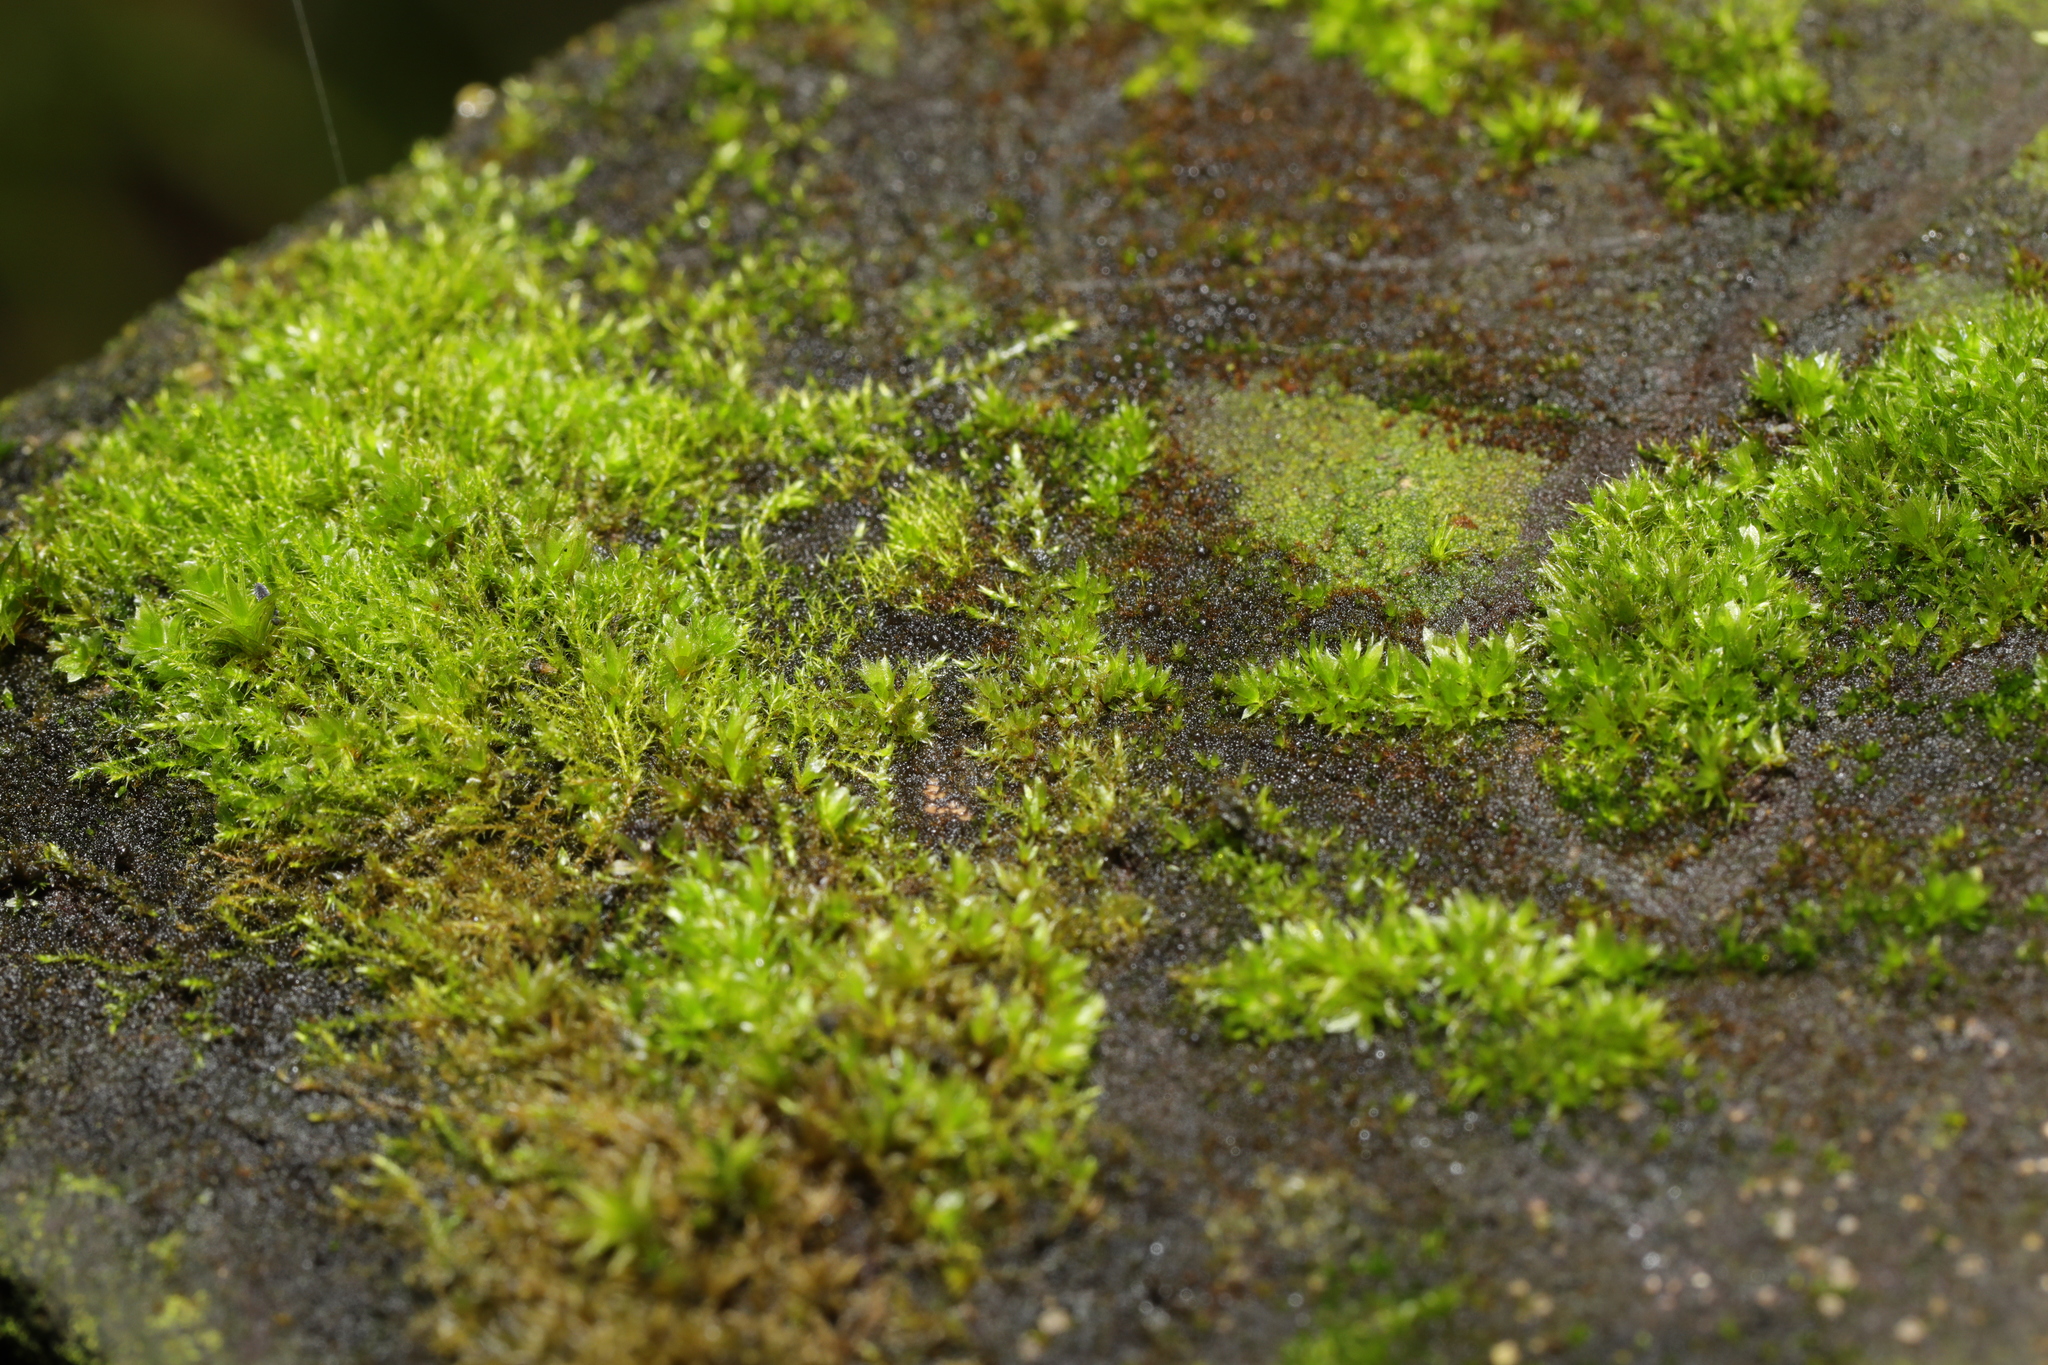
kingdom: Plantae
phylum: Bryophyta
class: Bryopsida
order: Bryales
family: Bryaceae
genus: Rosulabryum
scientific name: Rosulabryum capillare
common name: Capillary thread-moss
